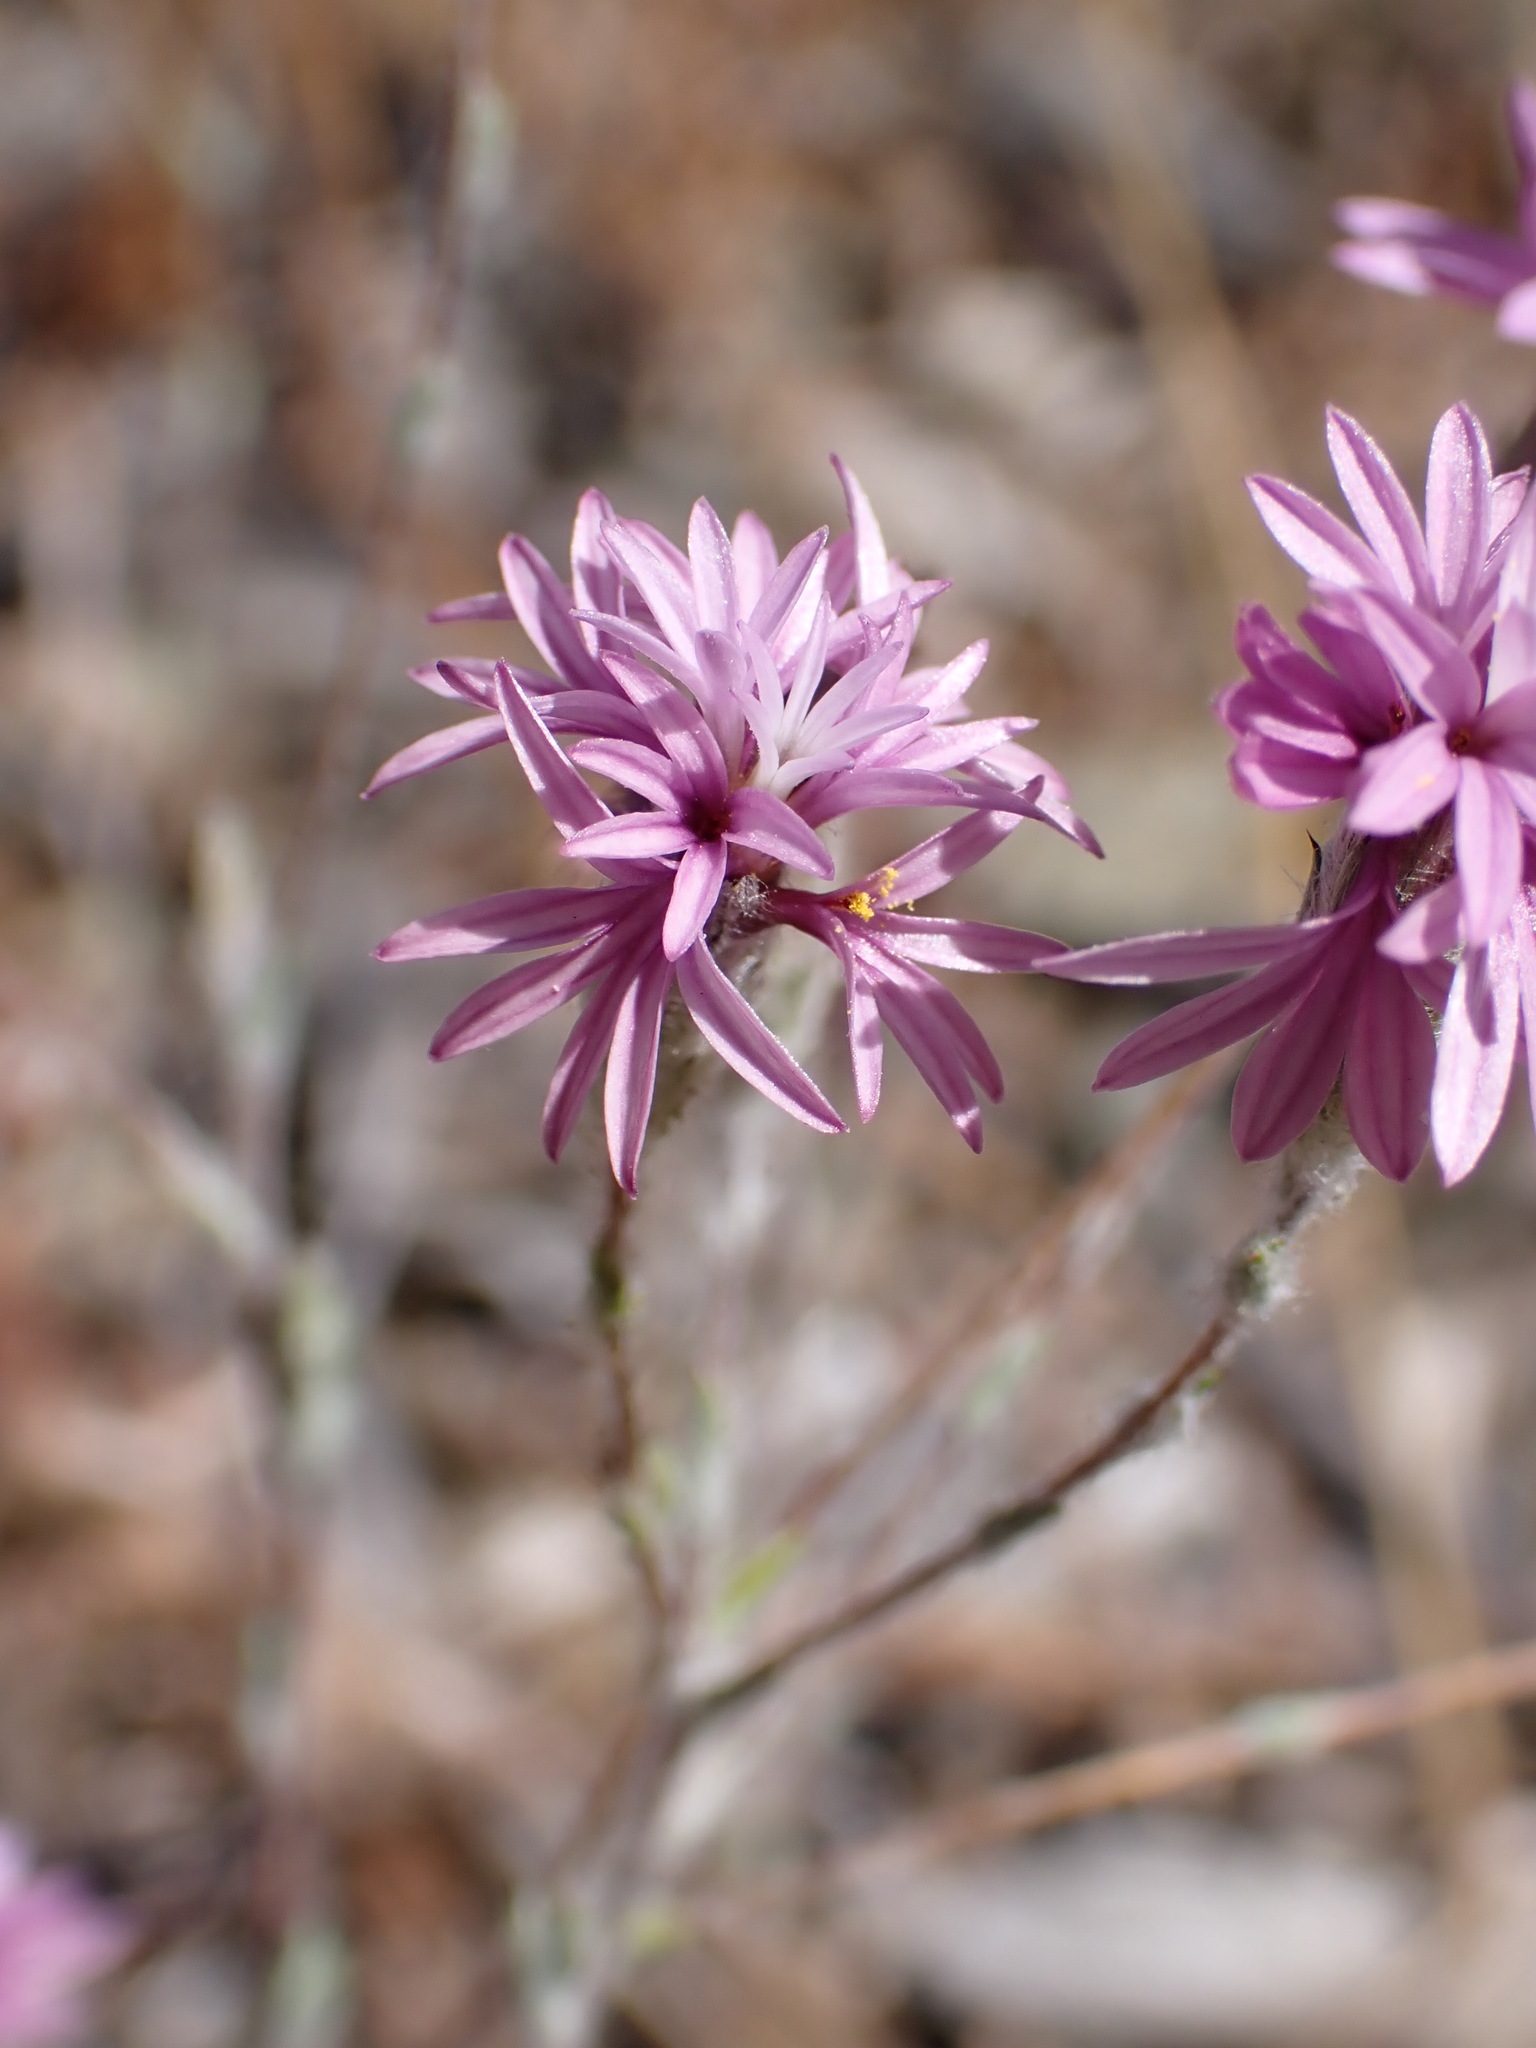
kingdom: Plantae
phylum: Tracheophyta
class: Magnoliopsida
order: Asterales
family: Asteraceae
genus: Lessingia
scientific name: Lessingia arachnoidea
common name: Crystal springs lessingia
